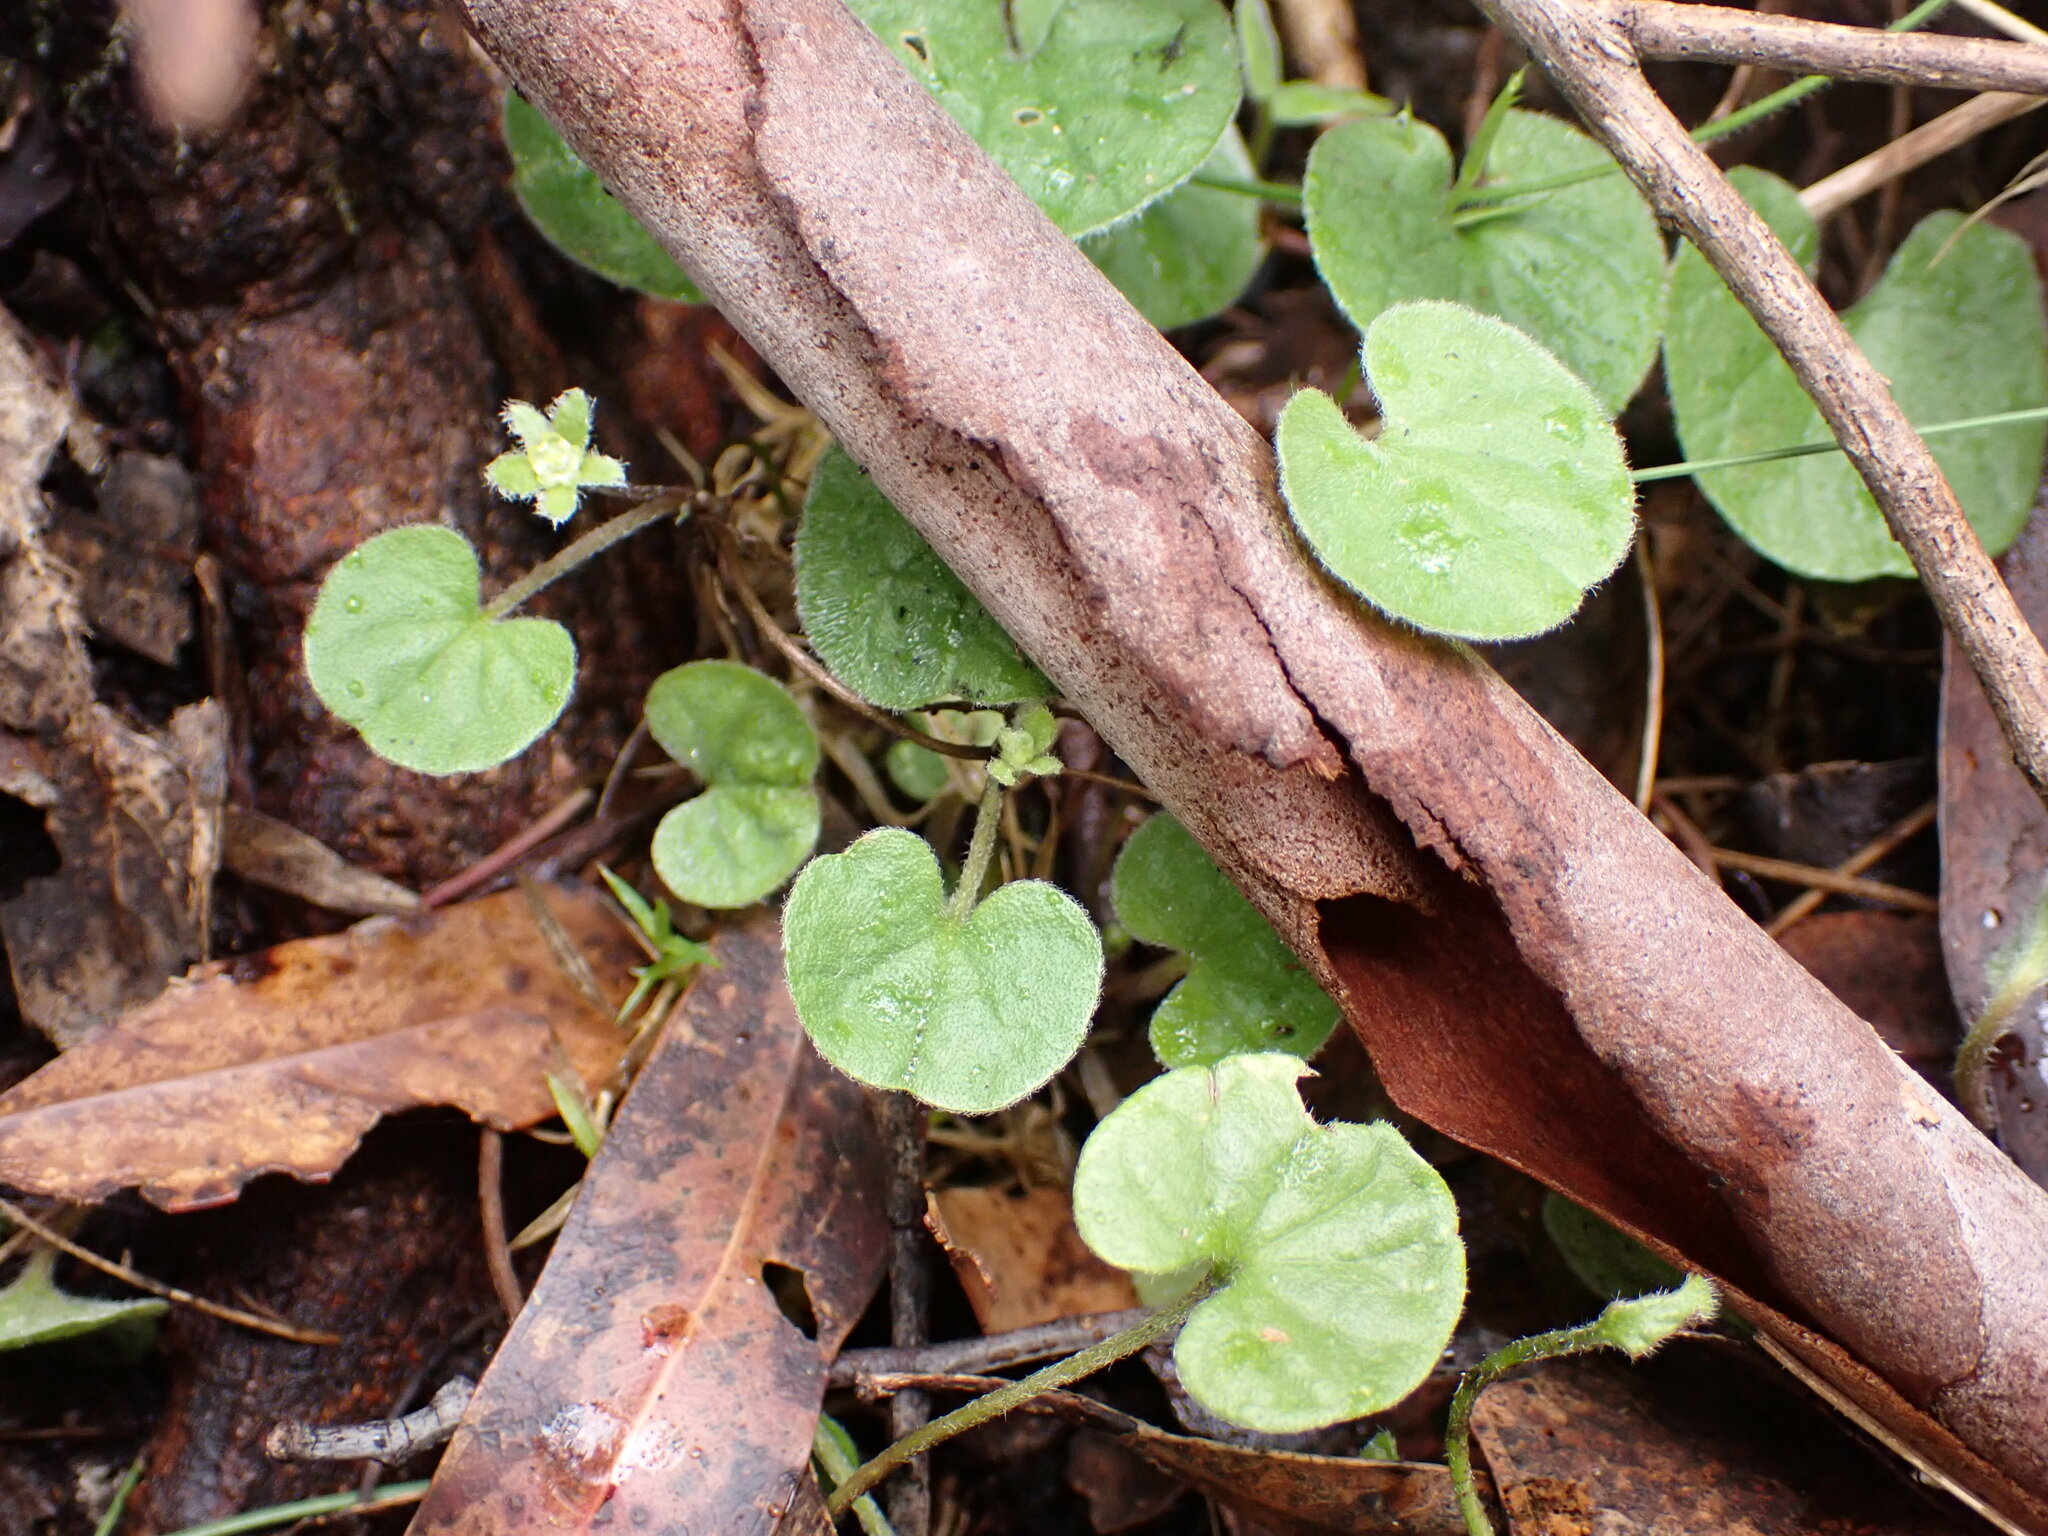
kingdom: Plantae
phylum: Tracheophyta
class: Magnoliopsida
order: Solanales
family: Convolvulaceae
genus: Dichondra
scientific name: Dichondra repens
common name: Kidneyweed
